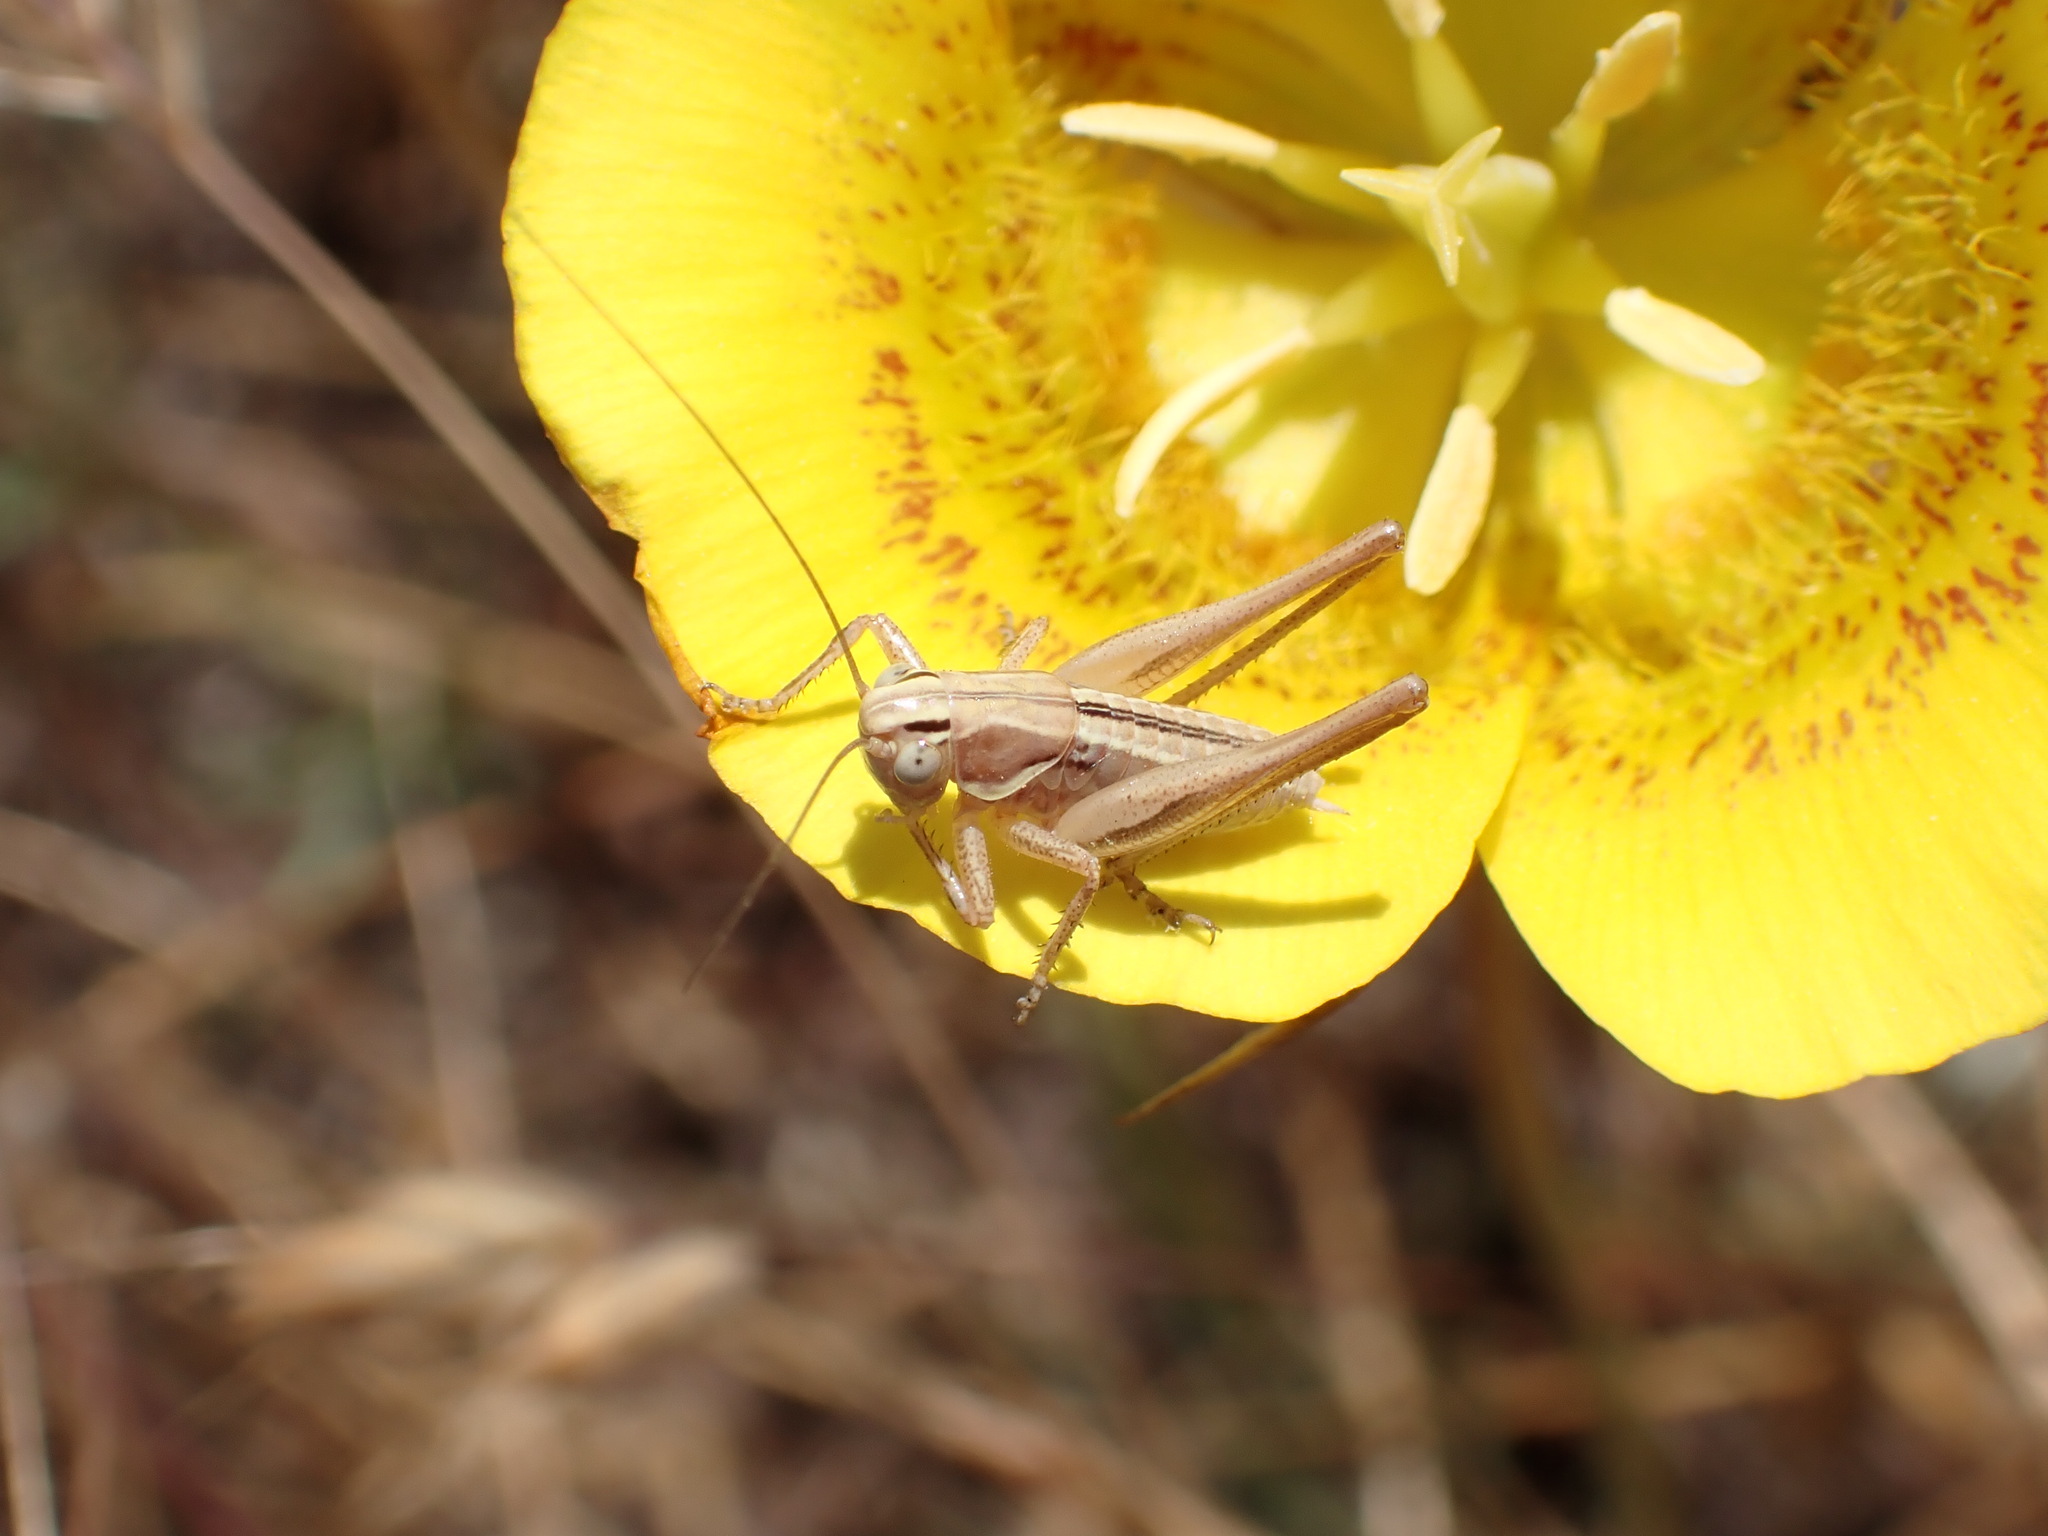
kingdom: Animalia
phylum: Arthropoda
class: Insecta
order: Orthoptera
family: Tettigoniidae
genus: Tessellana
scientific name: Tessellana tessellata
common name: Grasshopper
